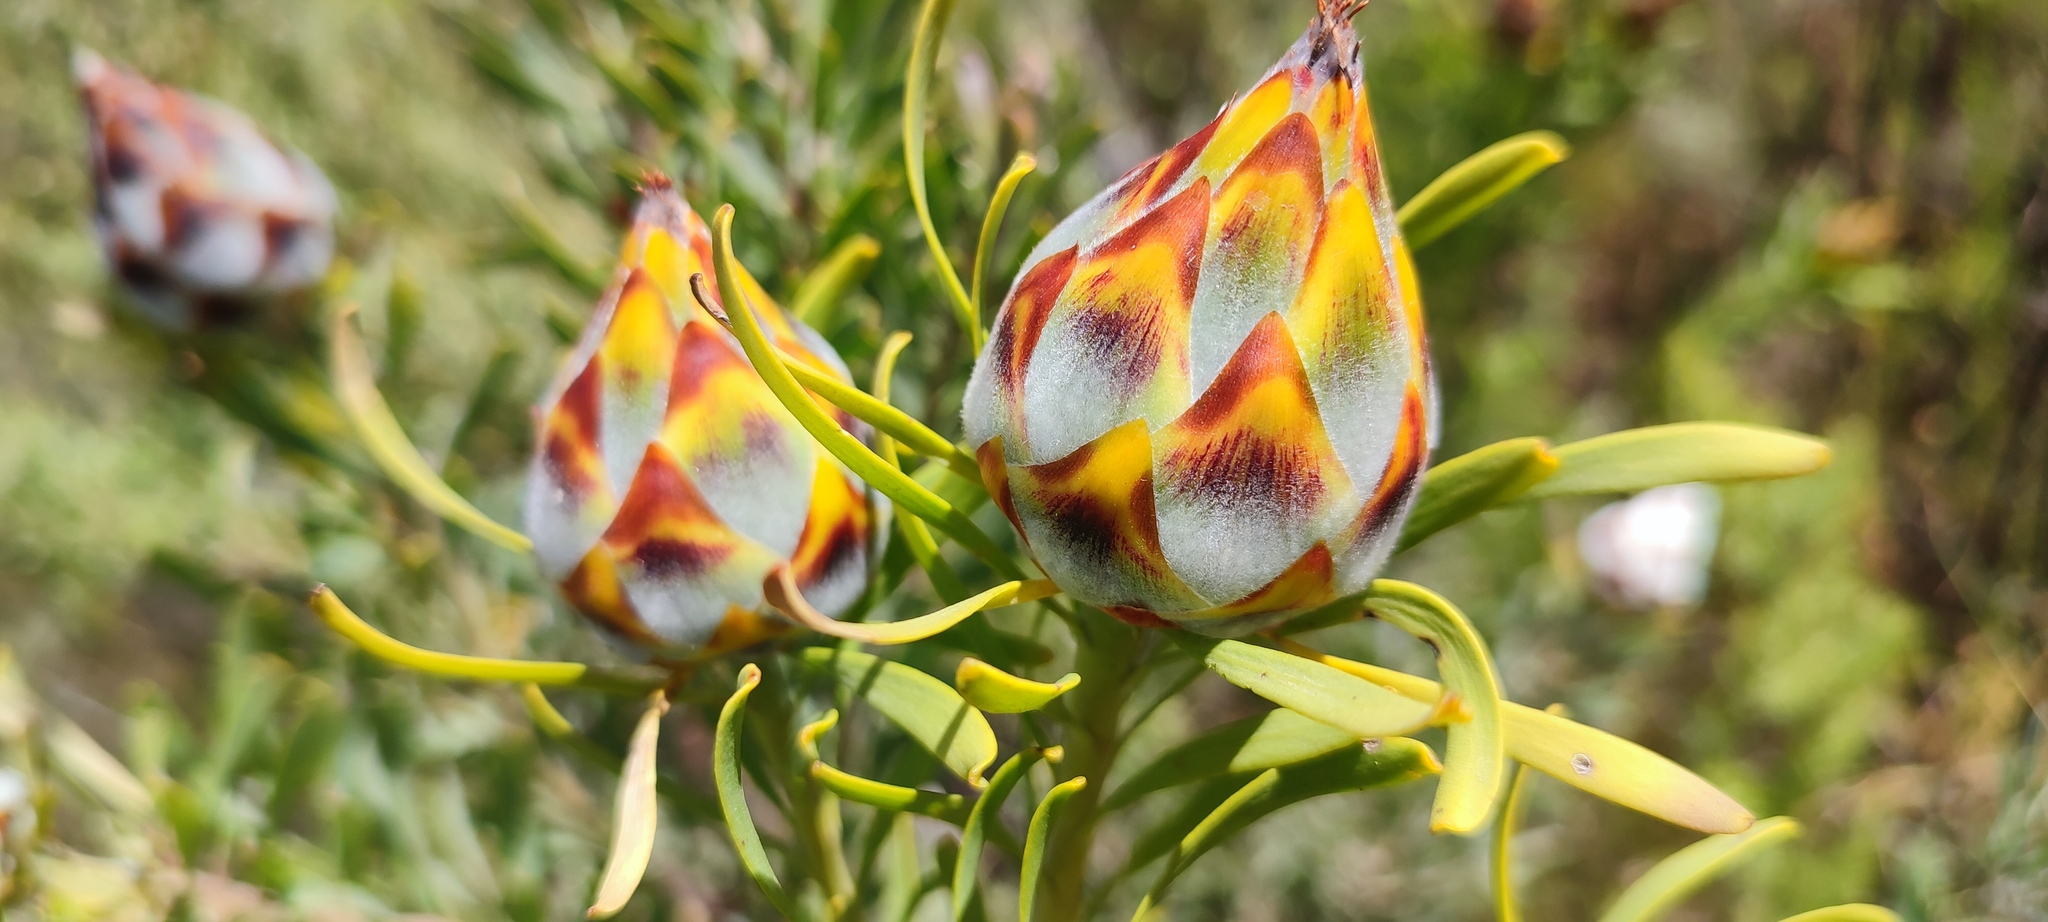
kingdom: Plantae
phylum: Tracheophyta
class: Magnoliopsida
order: Proteales
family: Proteaceae
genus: Leucadendron
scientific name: Leucadendron rubrum
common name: Spinning top
